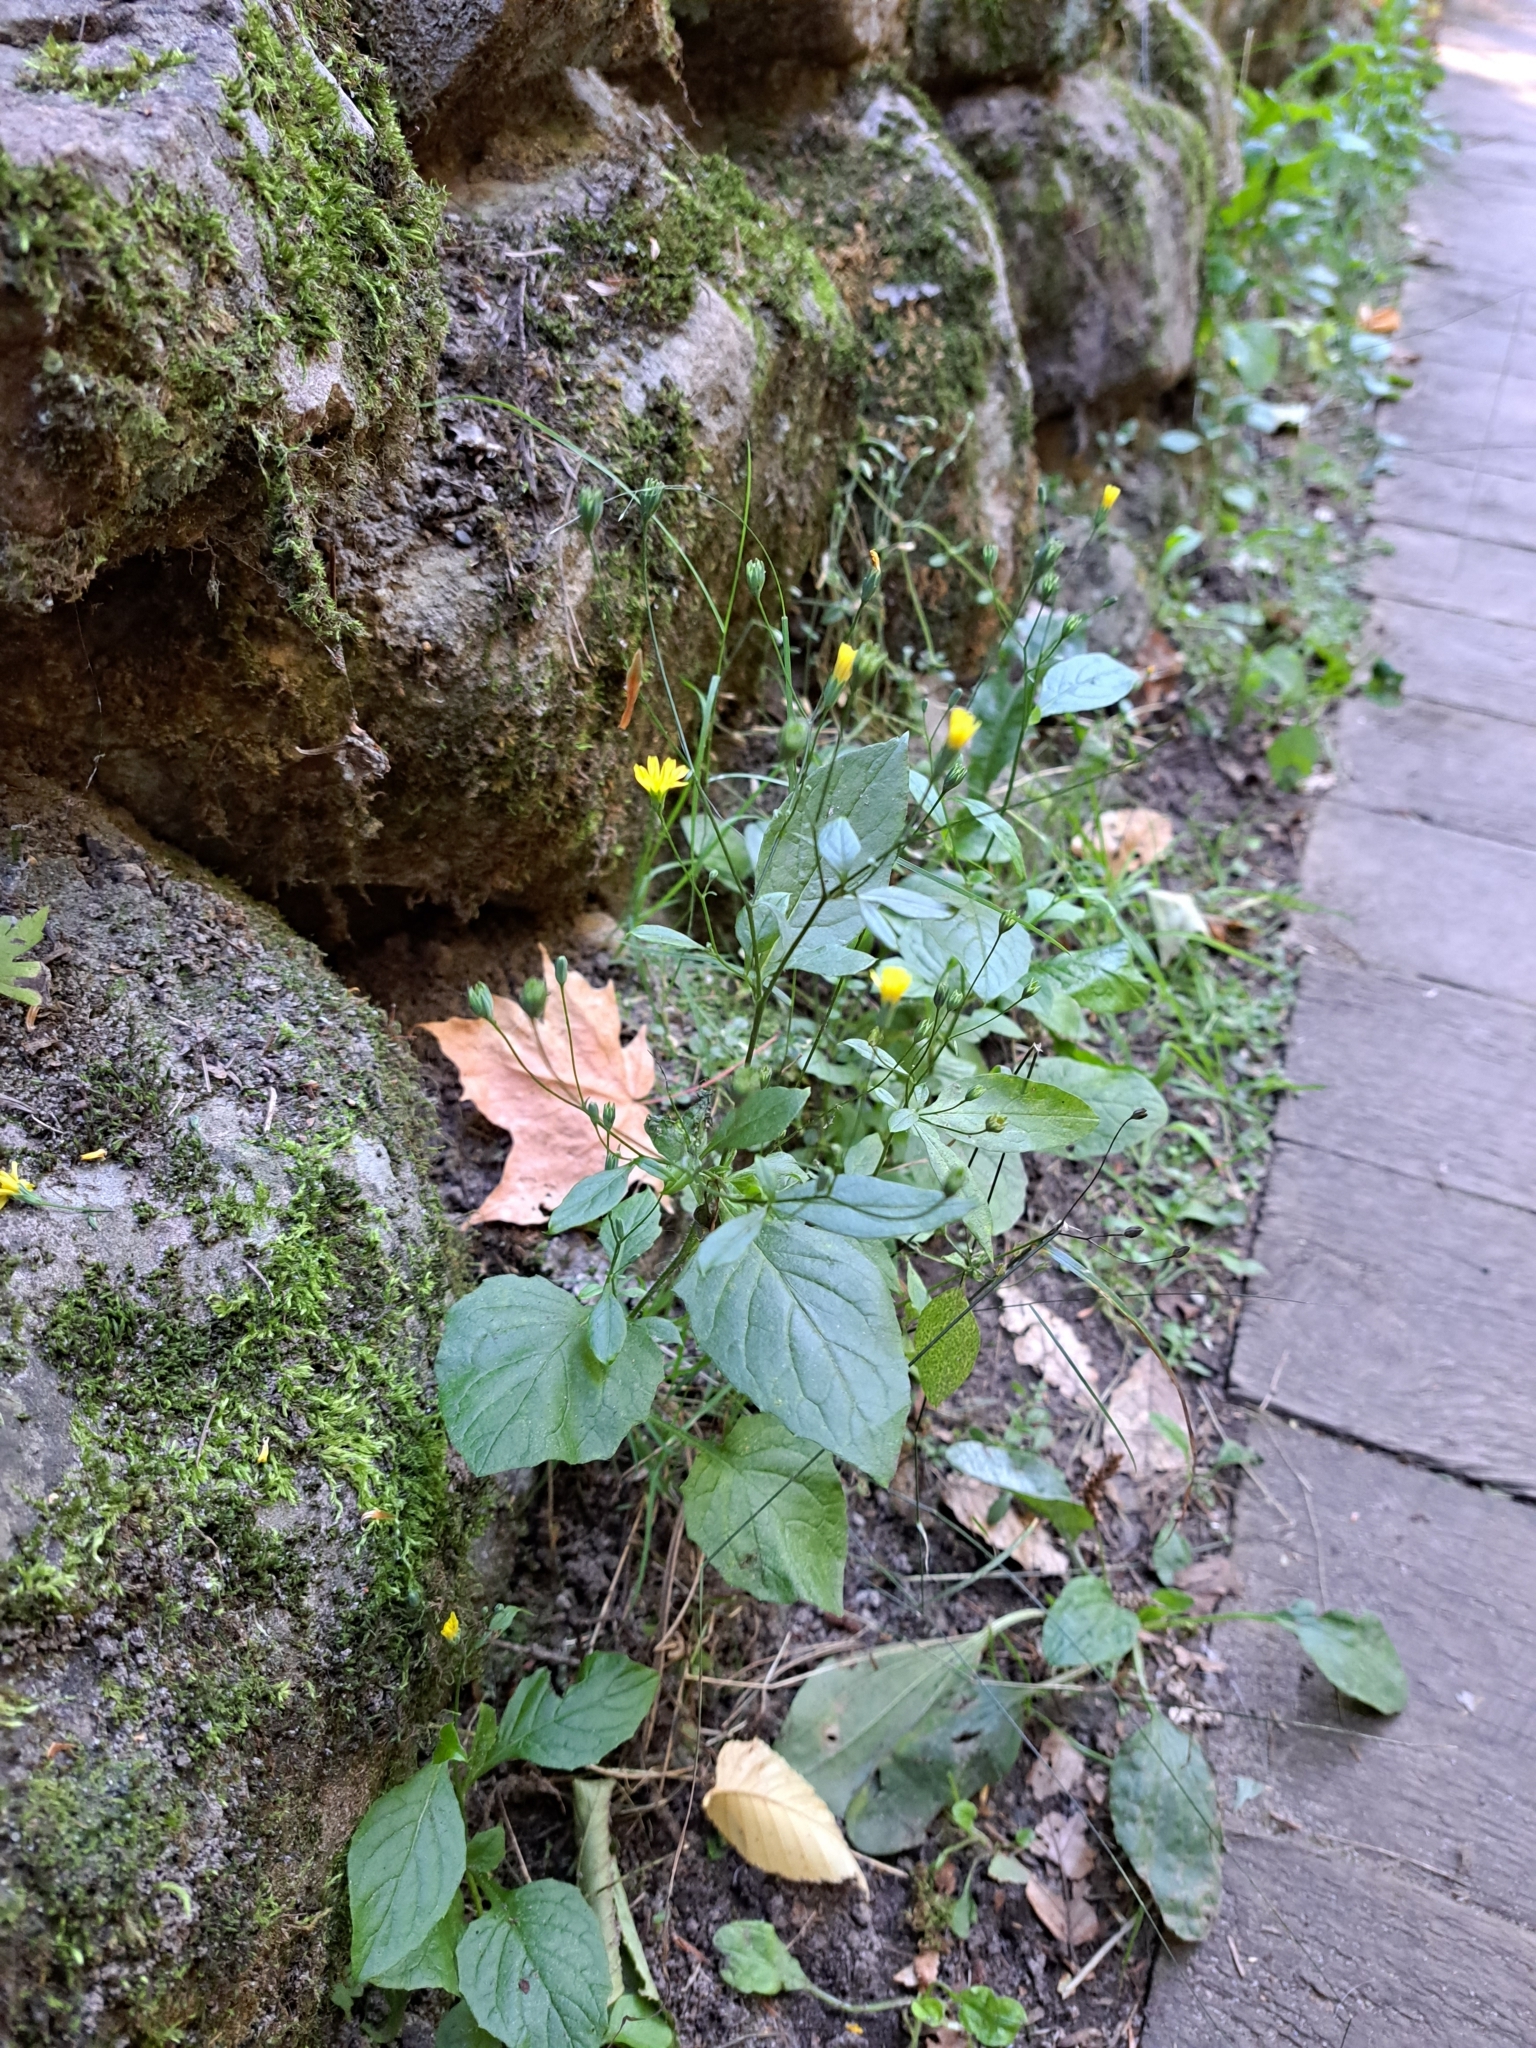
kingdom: Plantae
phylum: Tracheophyta
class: Magnoliopsida
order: Asterales
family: Asteraceae
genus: Lapsana
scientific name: Lapsana communis
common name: Nipplewort
